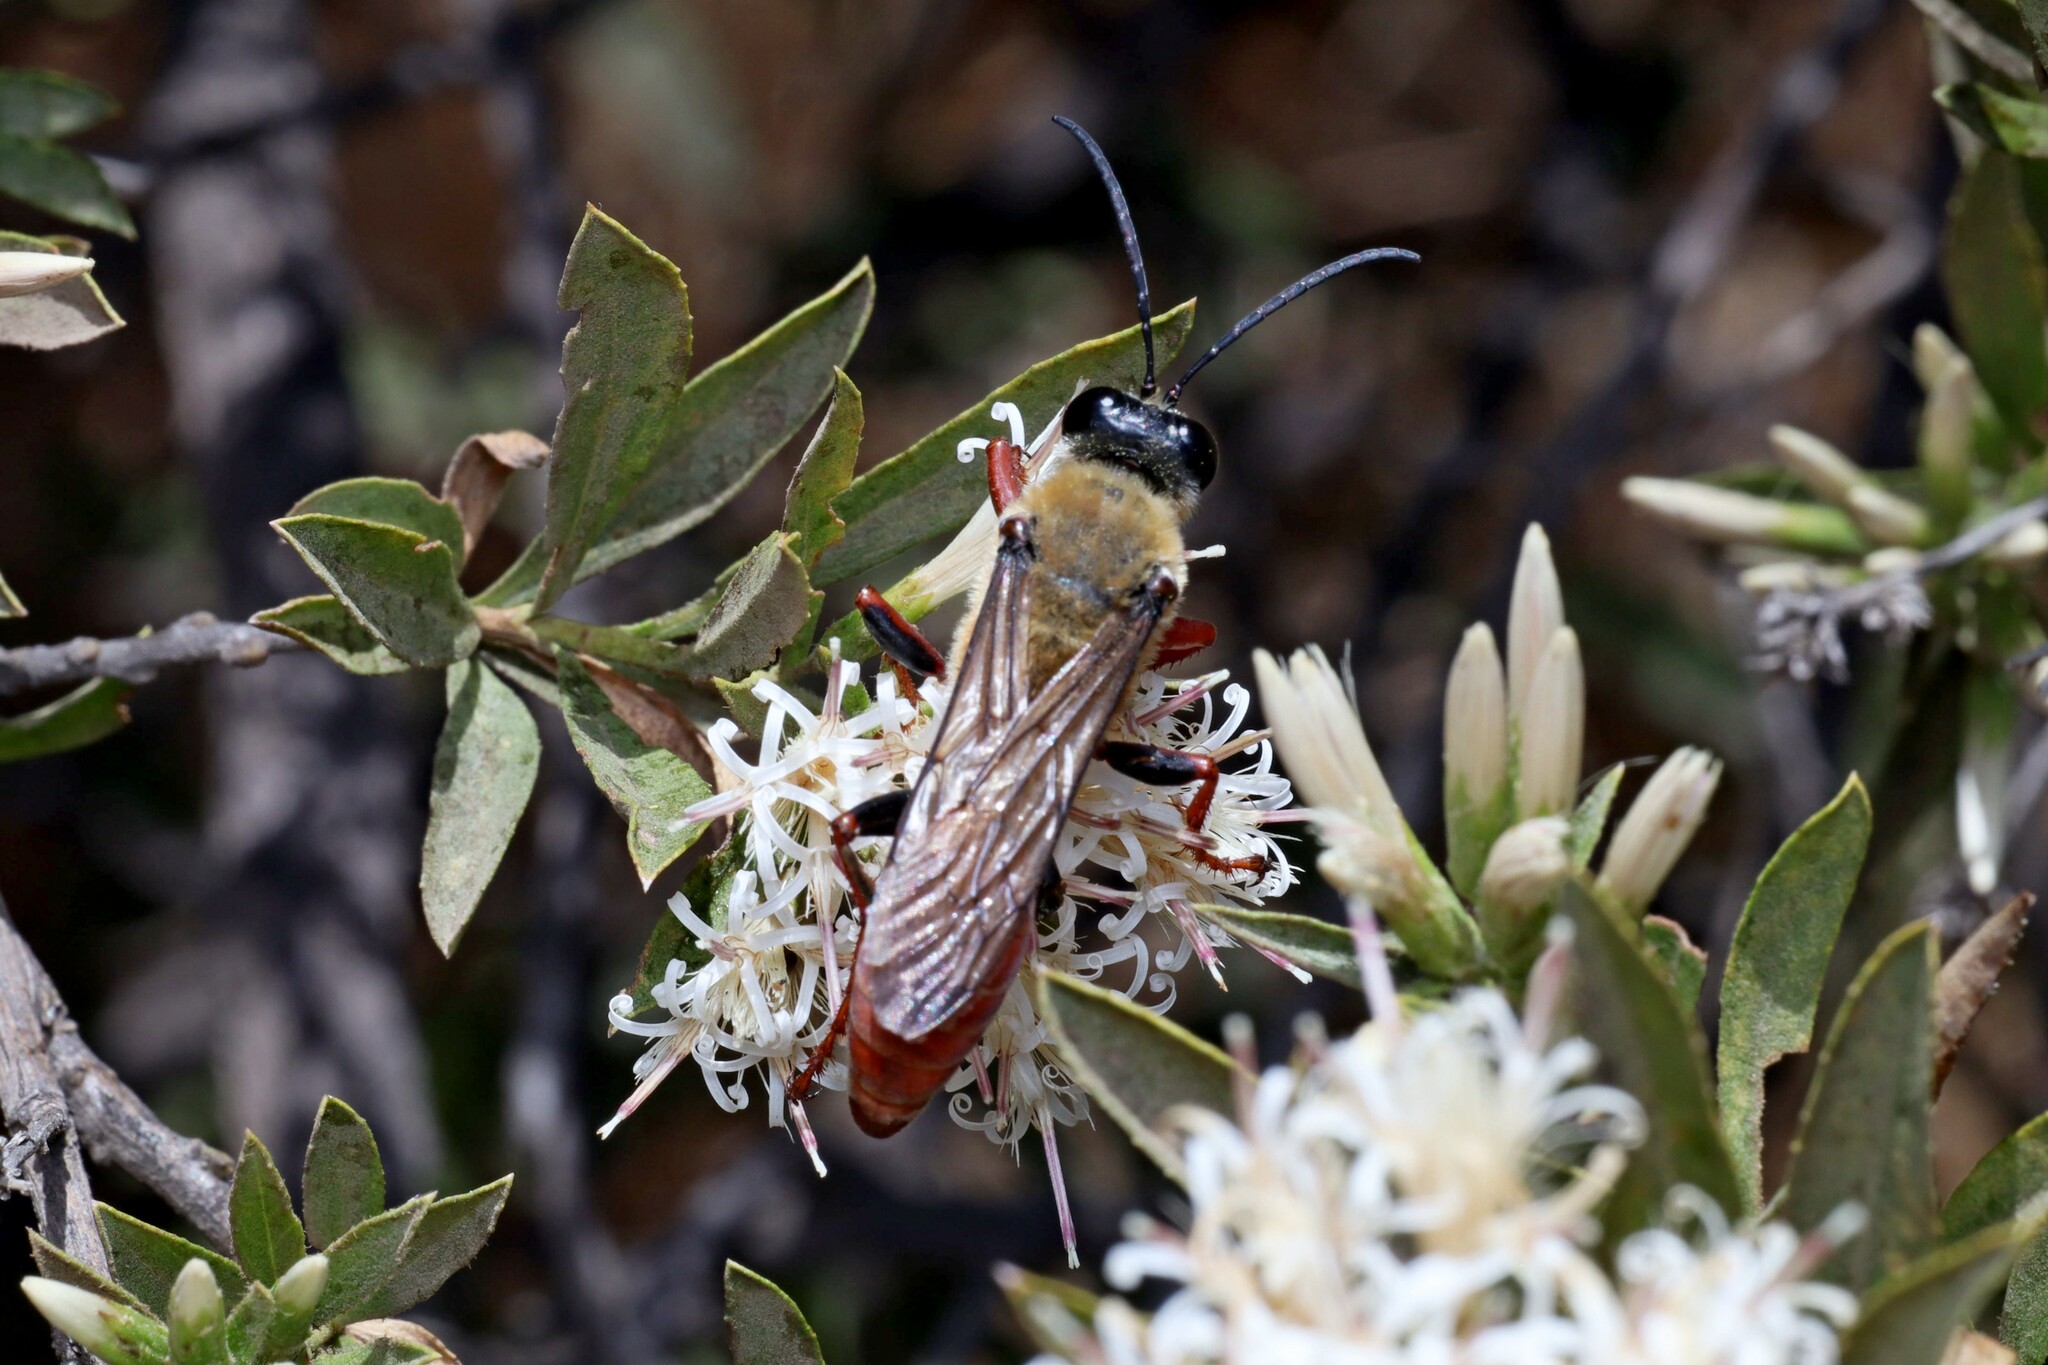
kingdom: Animalia
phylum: Arthropoda
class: Insecta
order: Hymenoptera
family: Sphecidae
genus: Sphex
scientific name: Sphex latreillei
